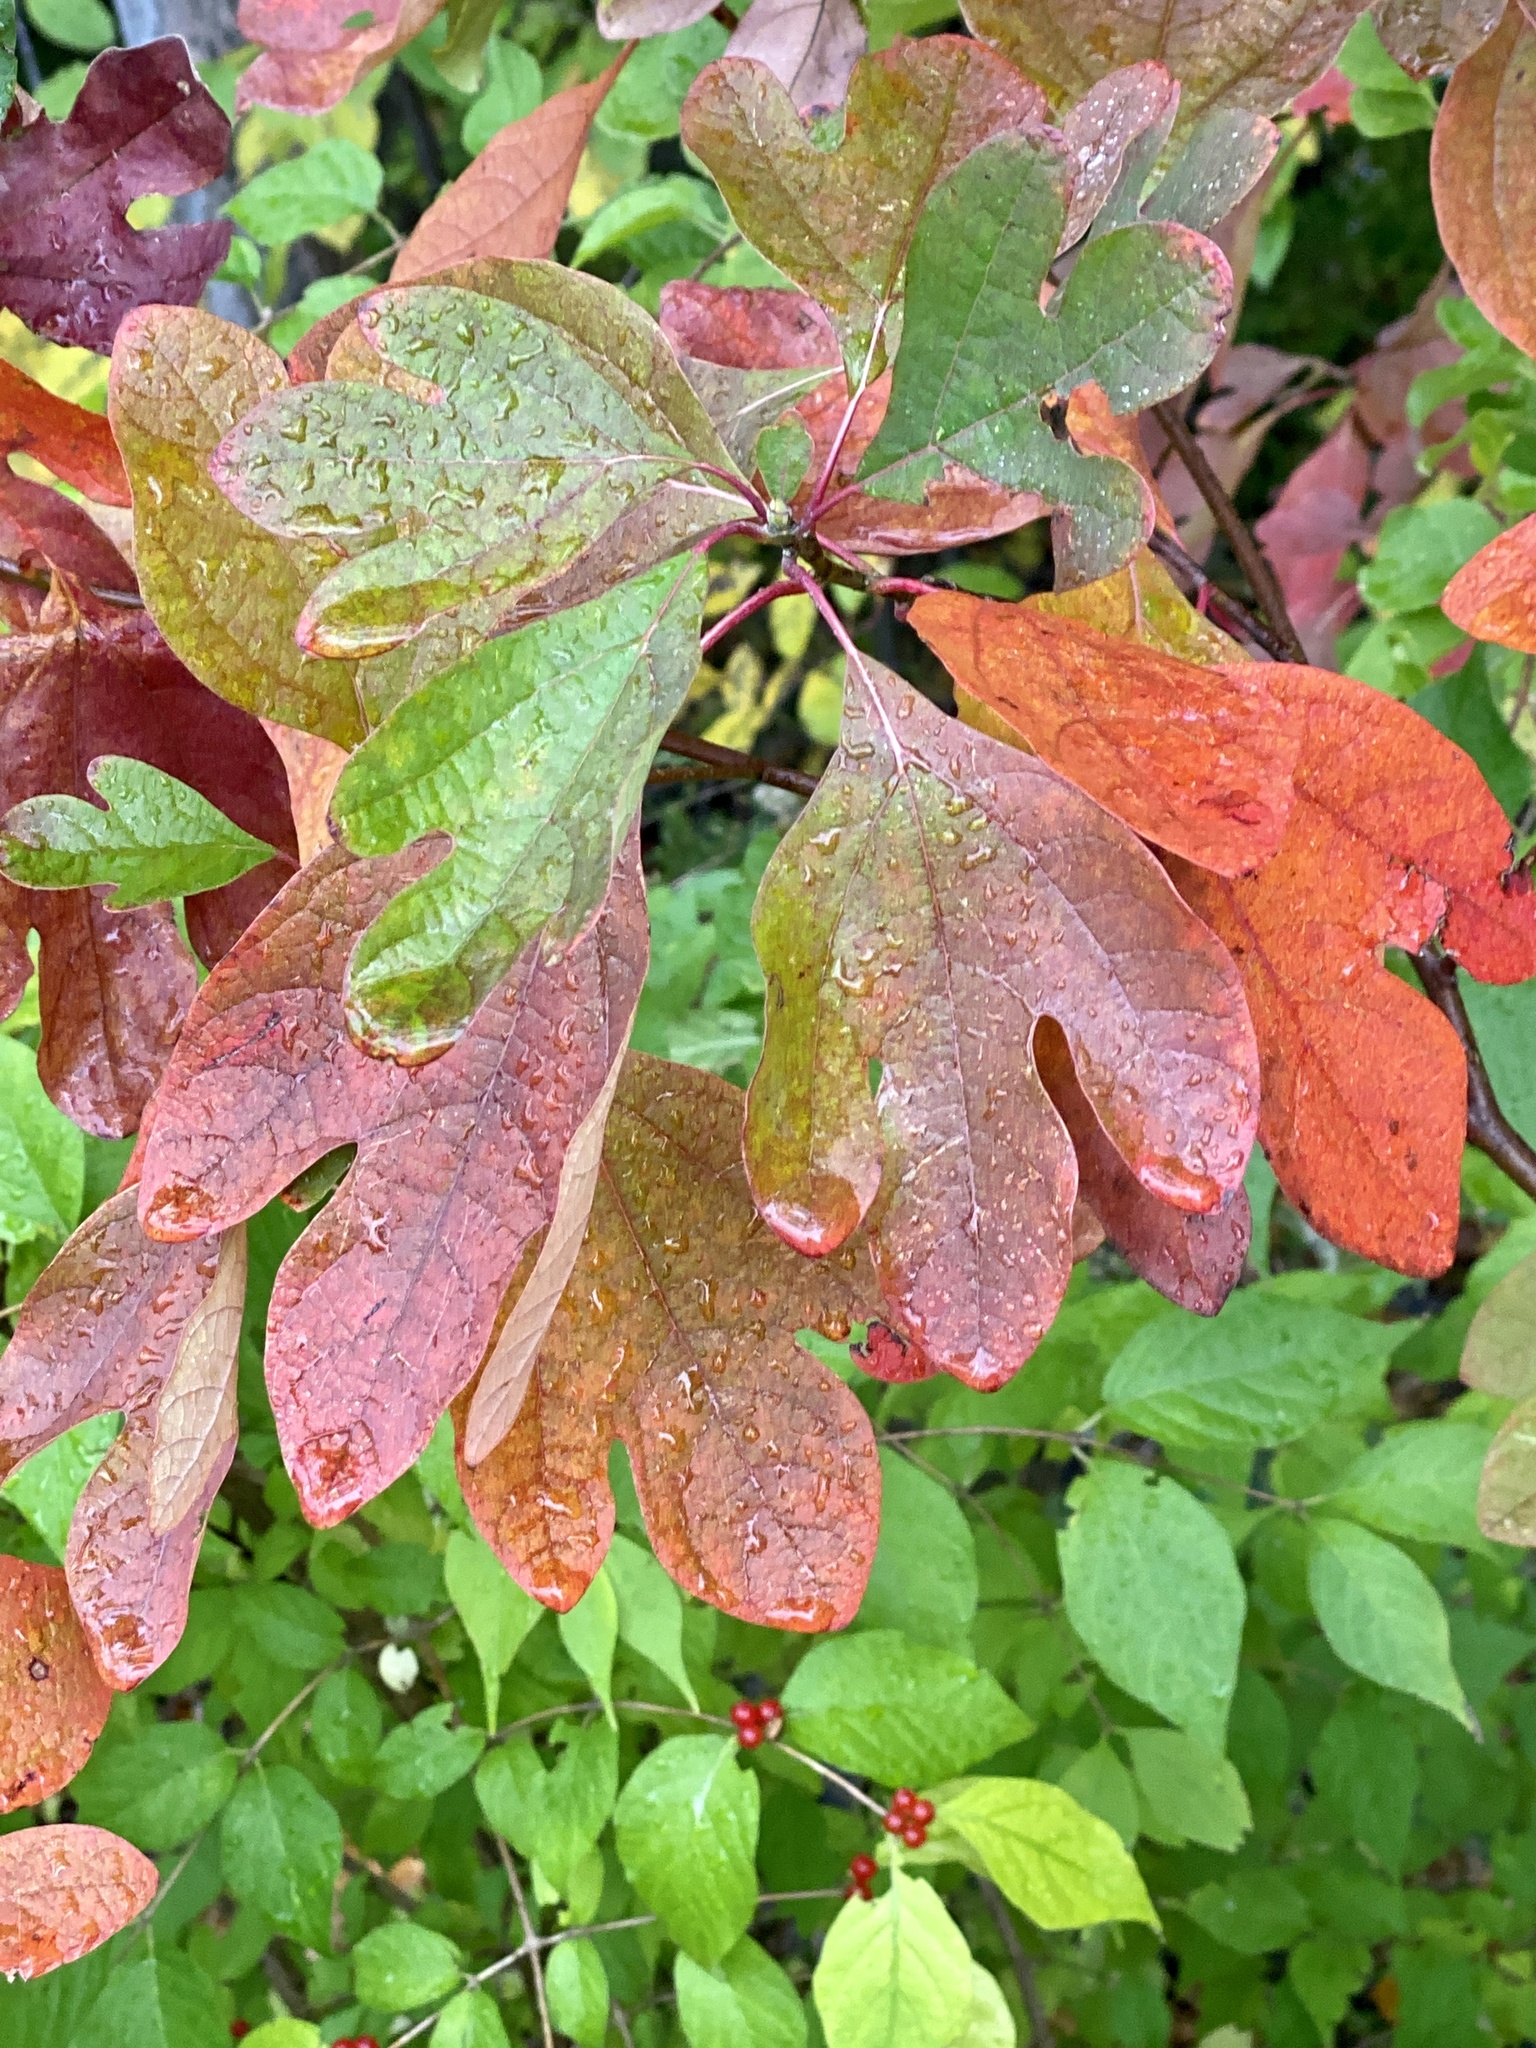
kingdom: Plantae
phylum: Tracheophyta
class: Magnoliopsida
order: Laurales
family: Lauraceae
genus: Sassafras
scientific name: Sassafras albidum
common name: Sassafras
